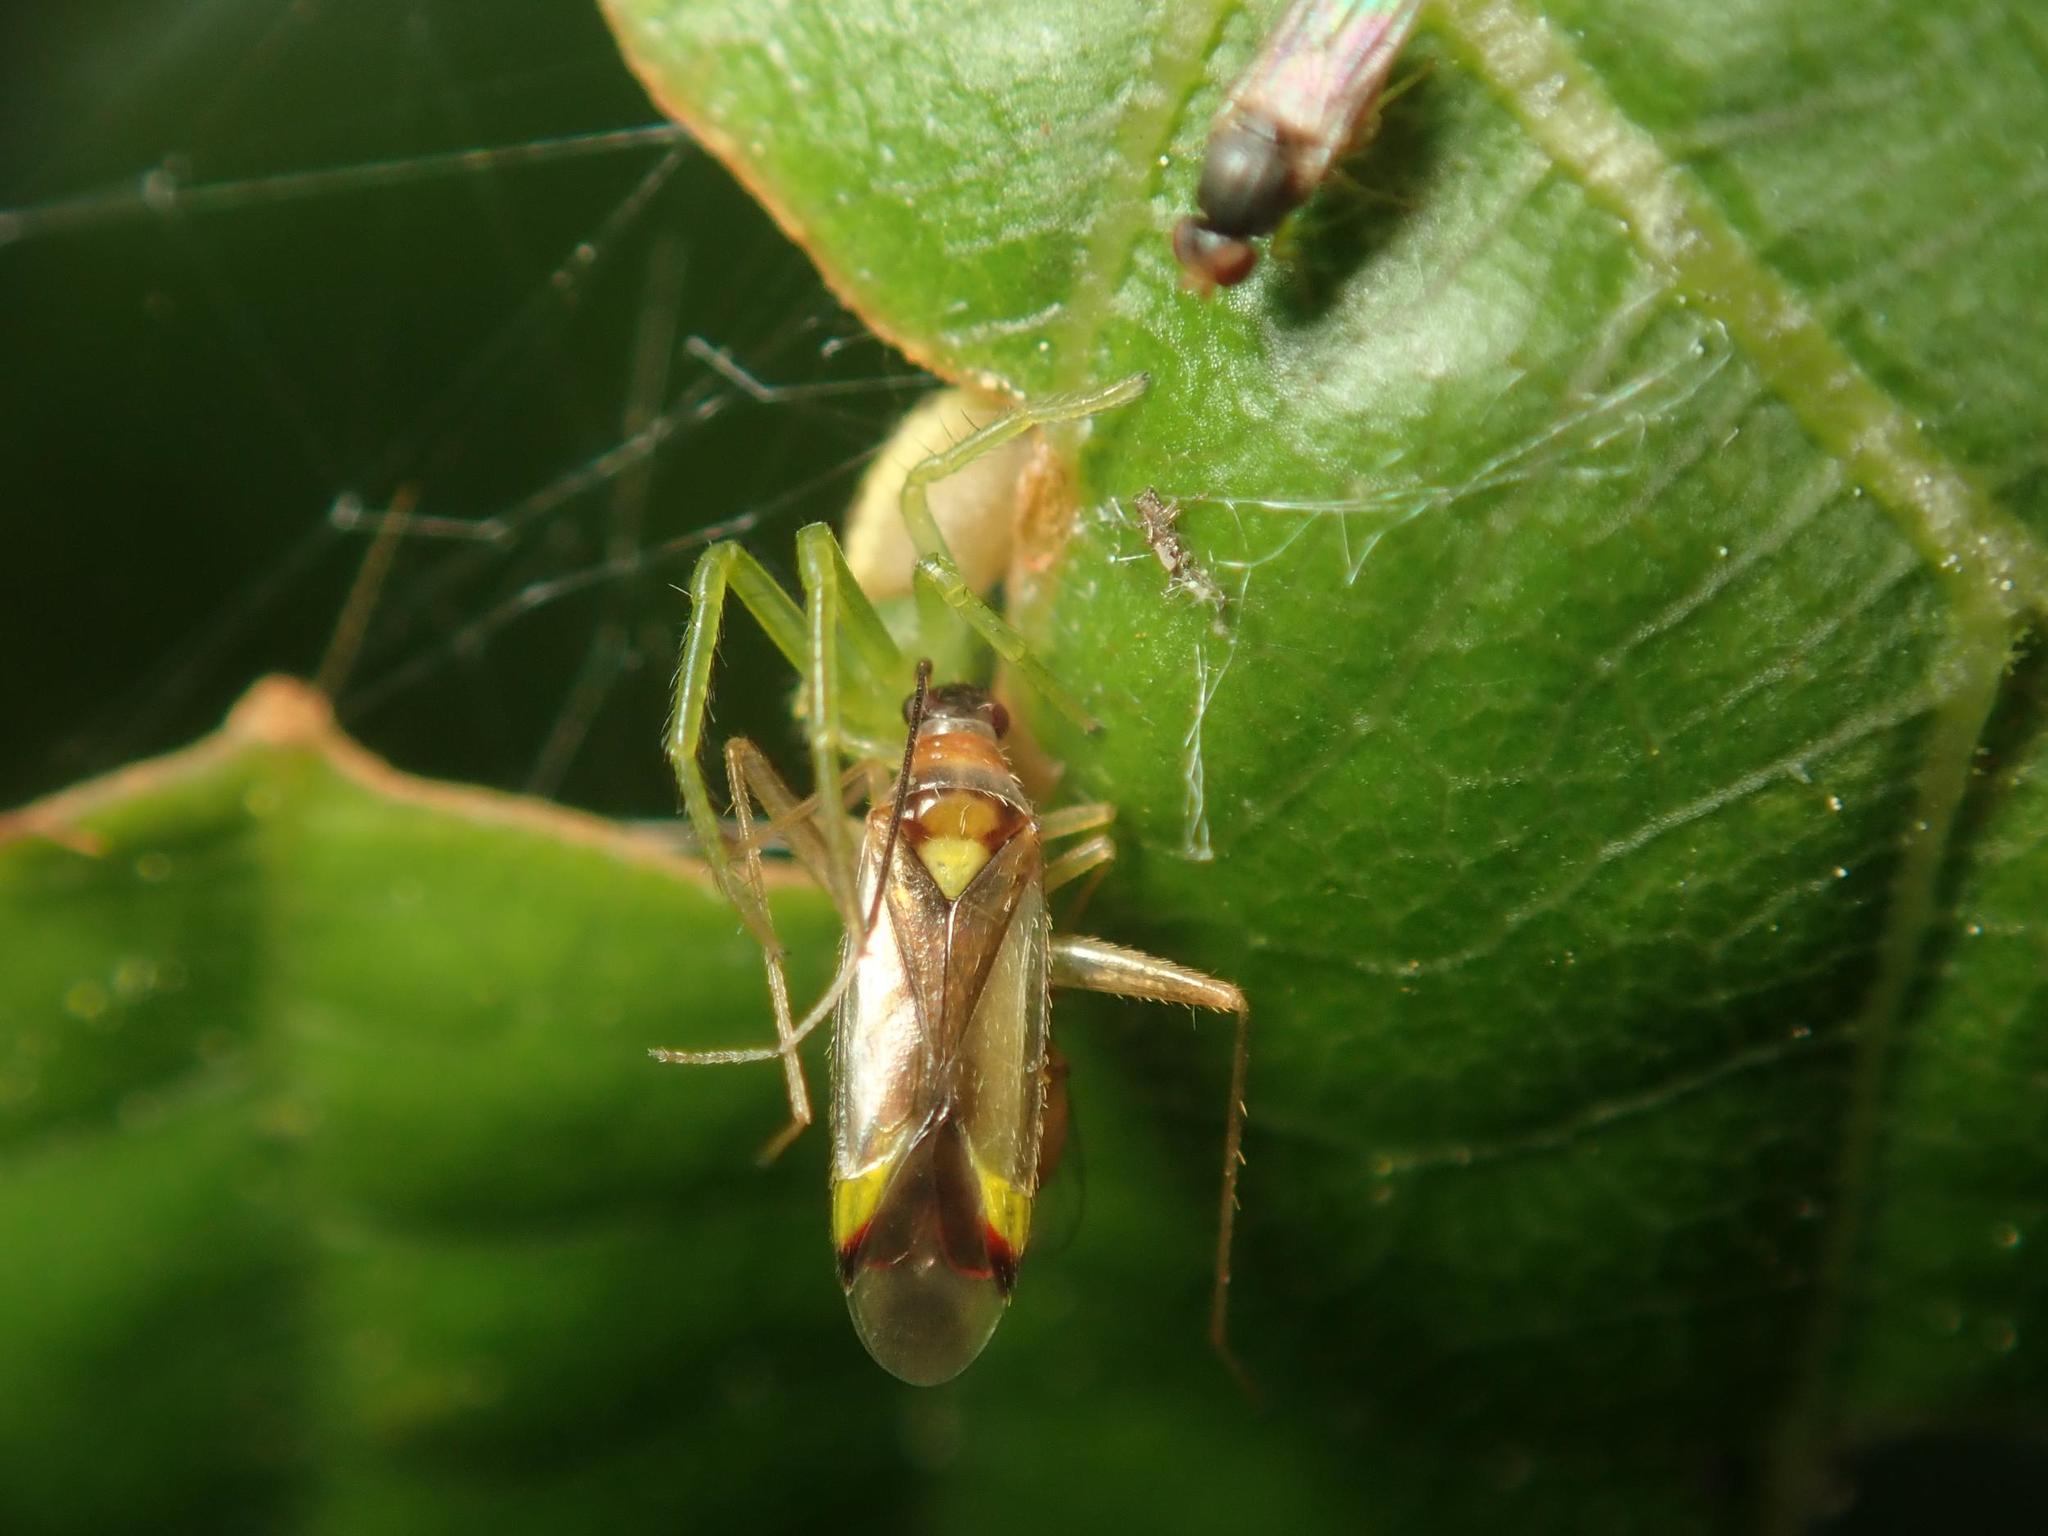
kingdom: Animalia
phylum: Arthropoda
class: Insecta
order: Hemiptera
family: Miridae
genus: Campyloneura
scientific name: Campyloneura virgula
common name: Predatory bug
